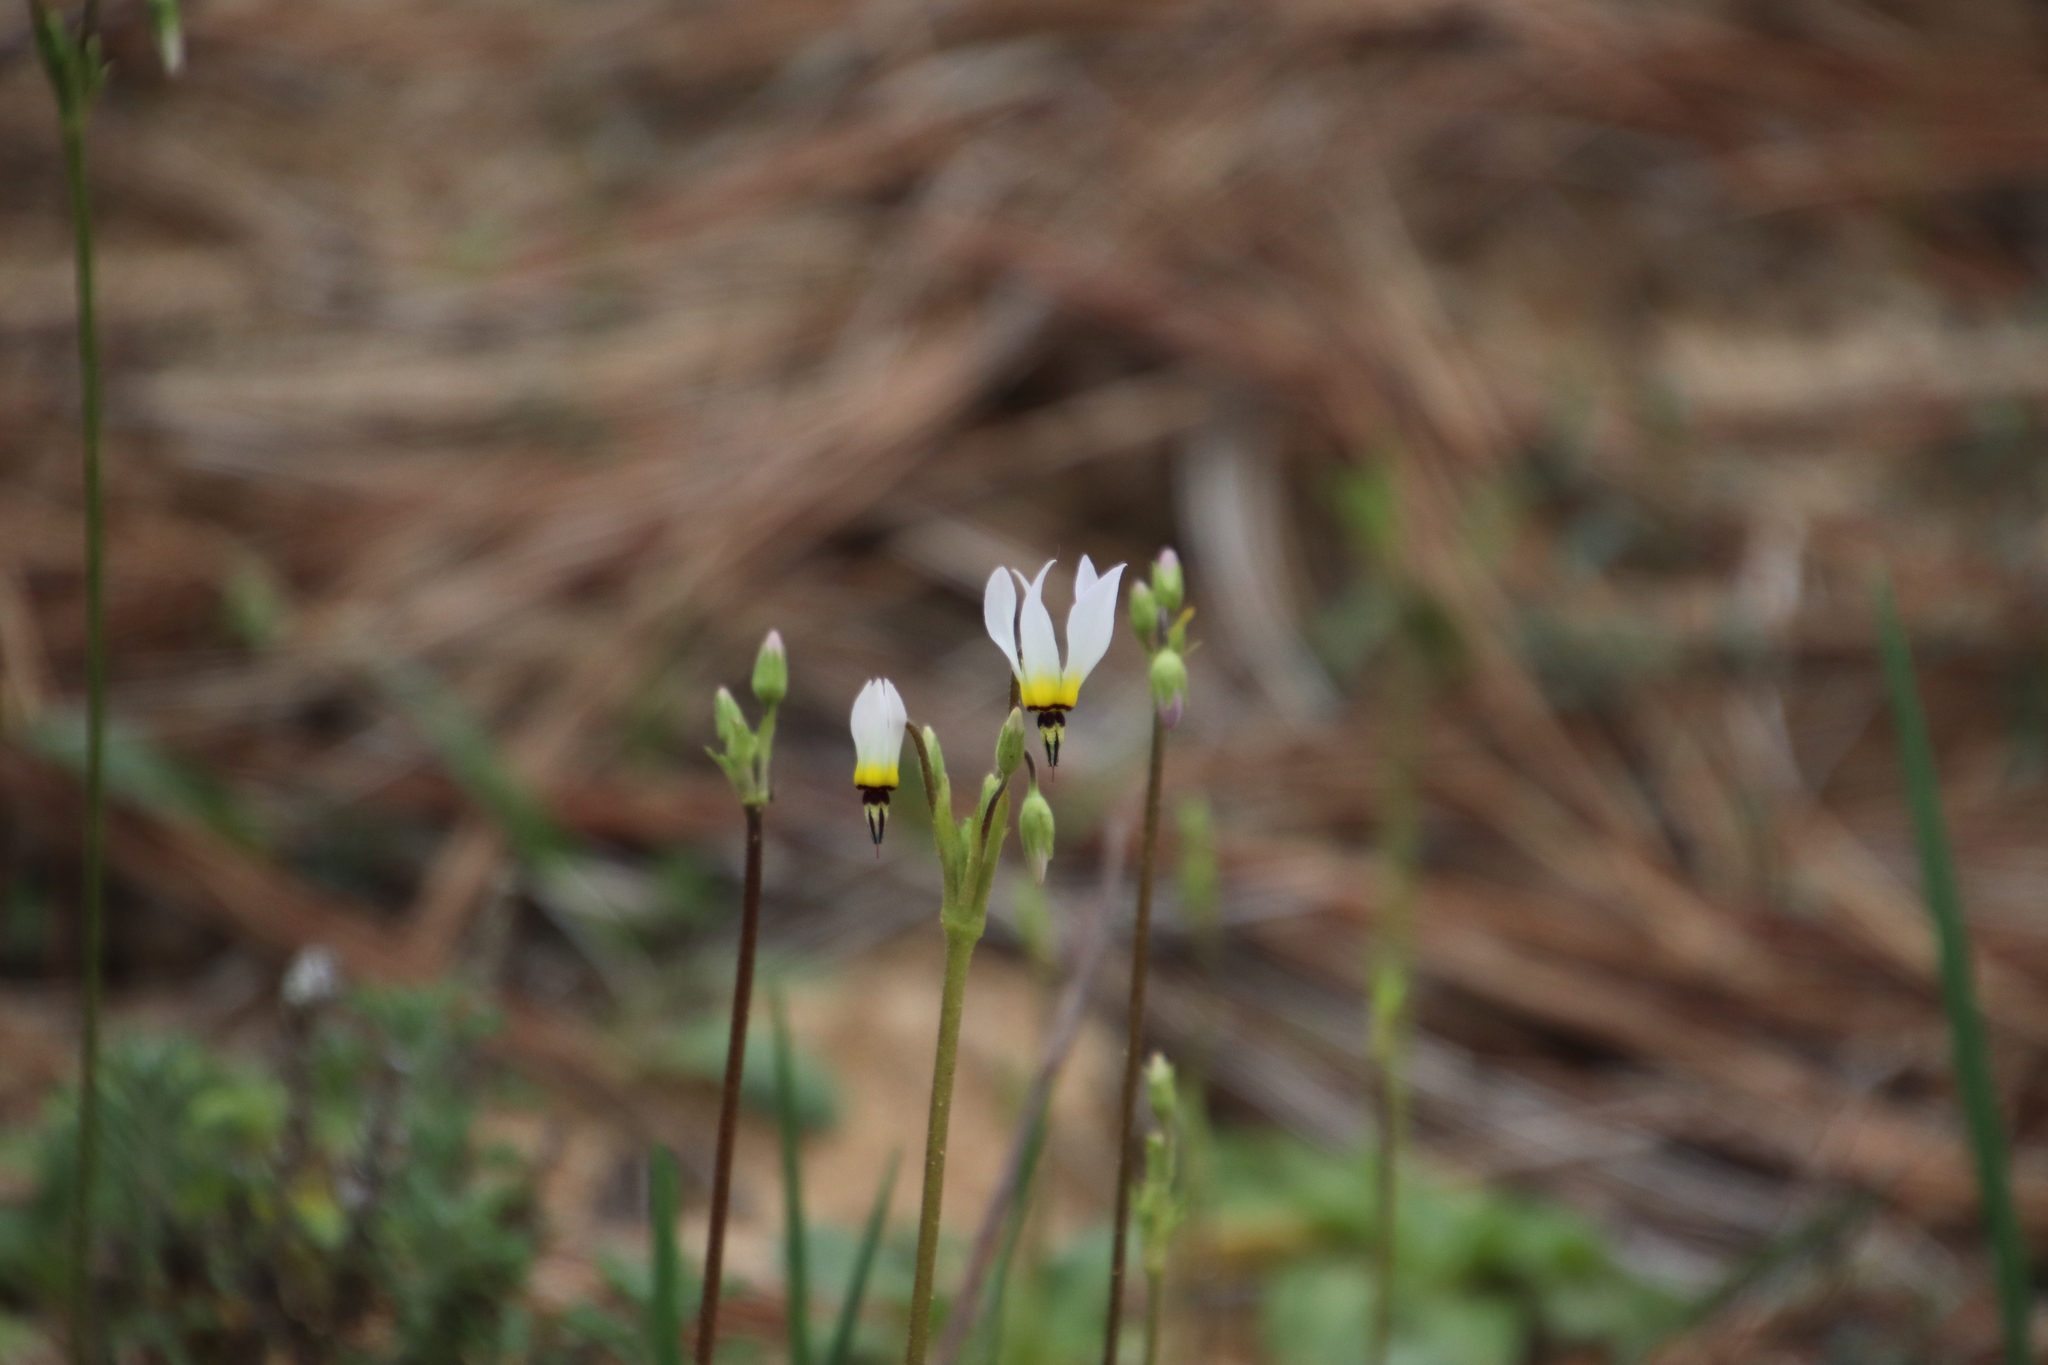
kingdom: Plantae
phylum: Tracheophyta
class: Magnoliopsida
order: Ericales
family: Primulaceae
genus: Dodecatheon
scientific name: Dodecatheon clevelandii
